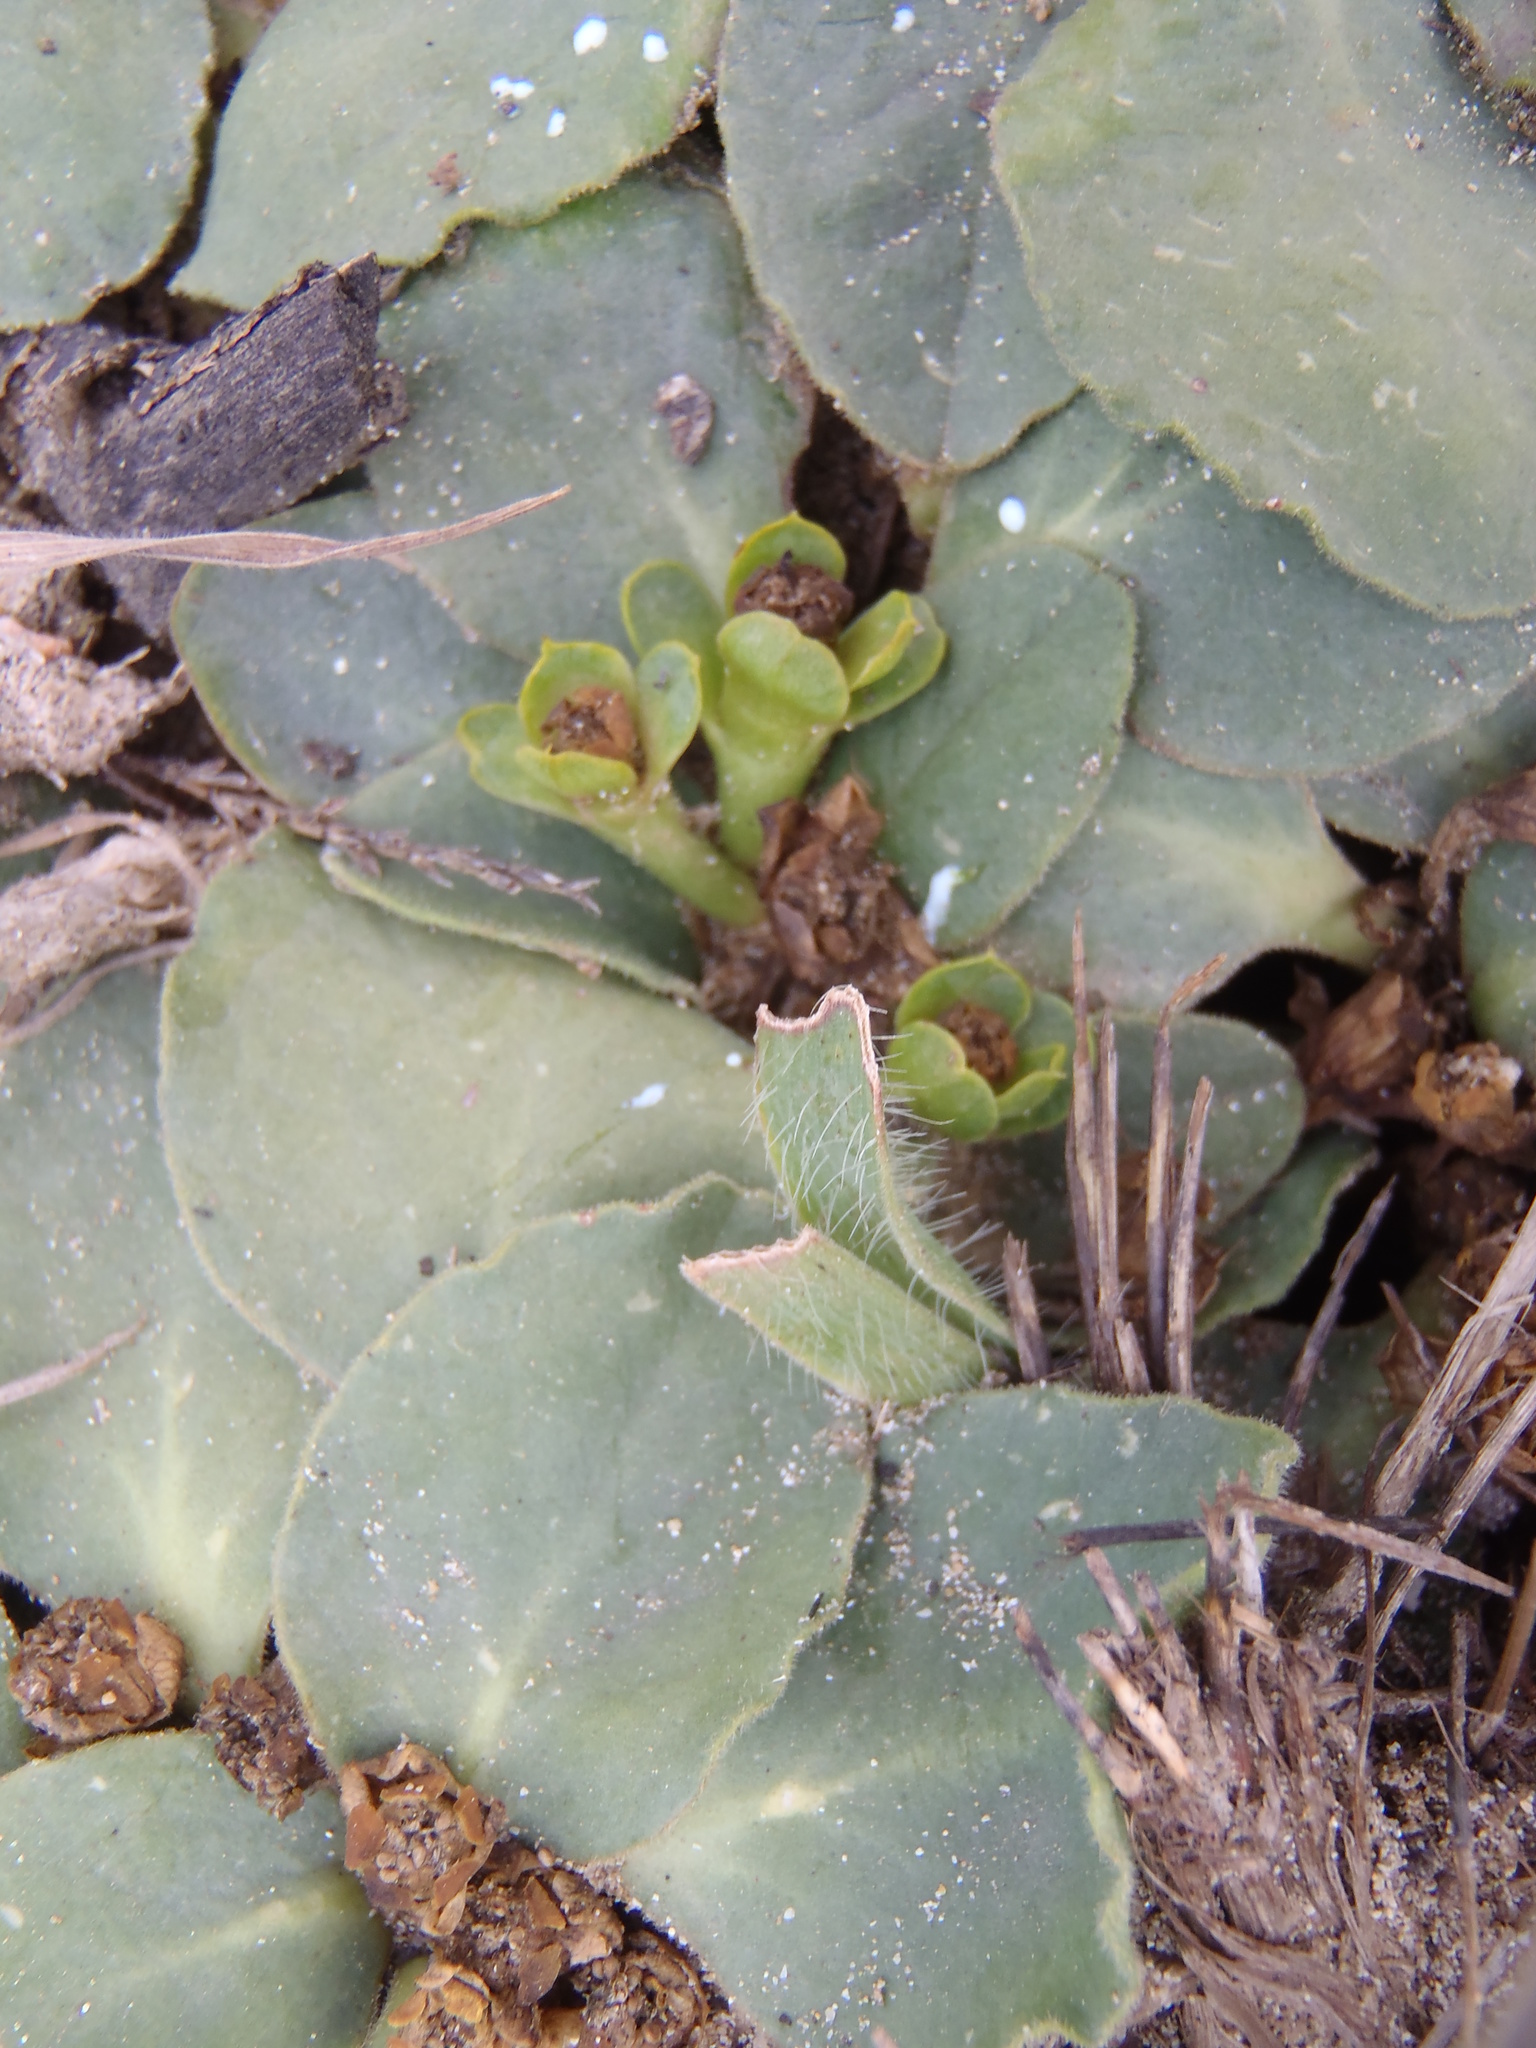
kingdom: Plantae
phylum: Tracheophyta
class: Magnoliopsida
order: Malpighiales
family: Euphorbiaceae
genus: Euphorbia
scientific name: Euphorbia ecklonii
